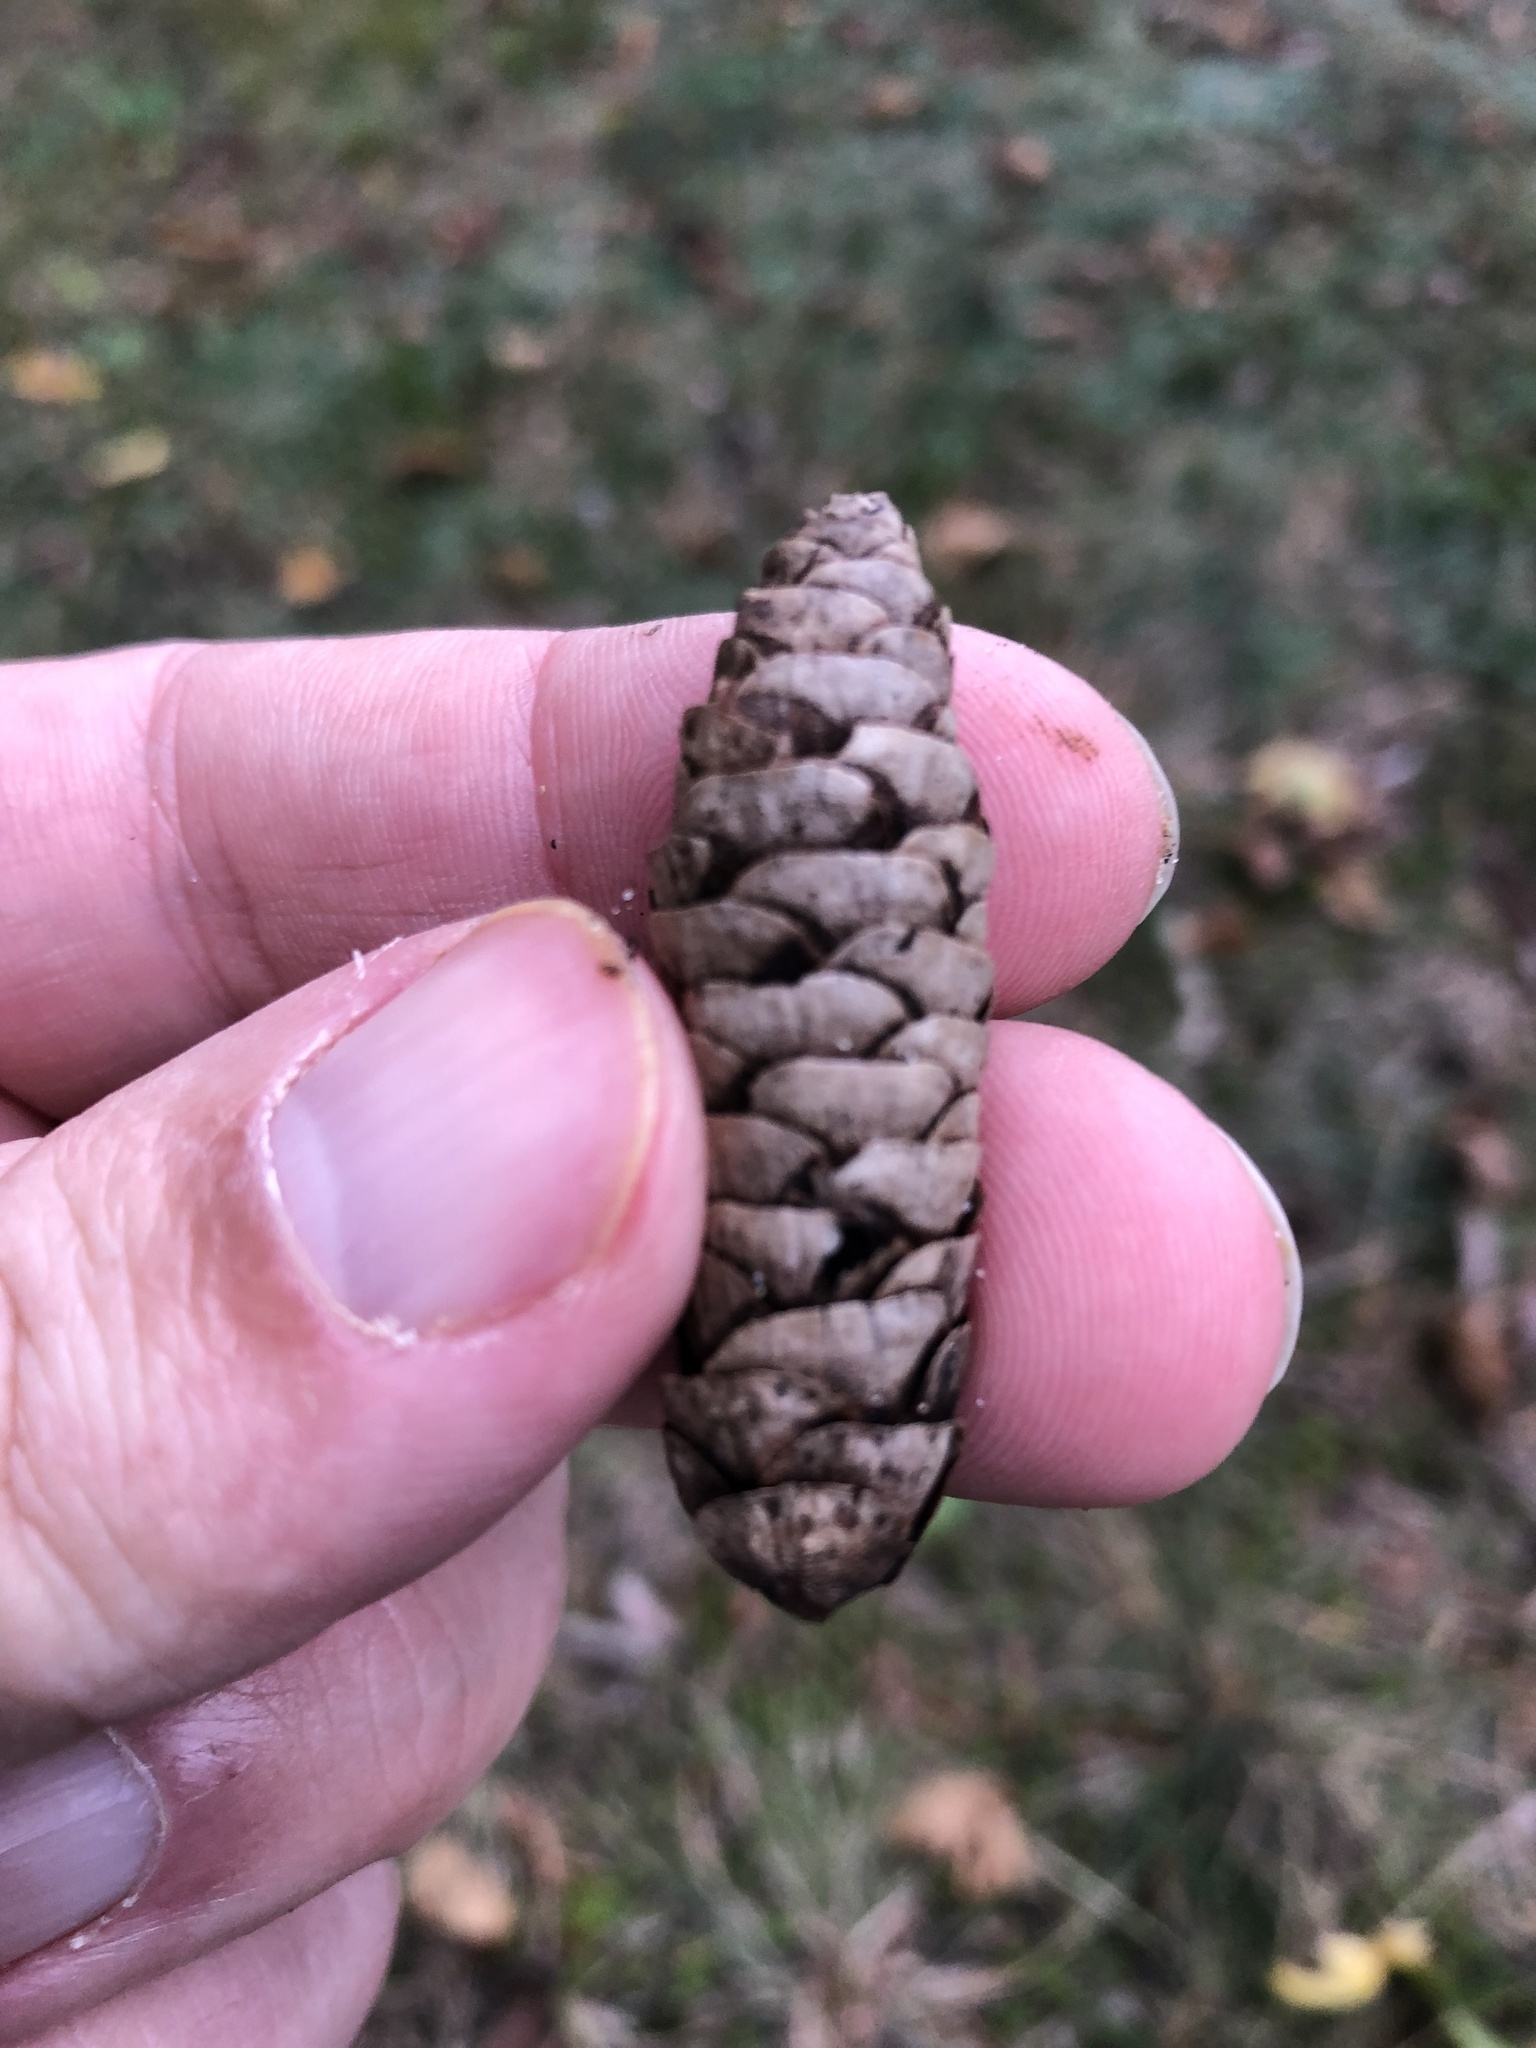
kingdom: Plantae
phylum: Tracheophyta
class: Pinopsida
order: Pinales
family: Pinaceae
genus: Picea
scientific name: Picea glauca
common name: White spruce
